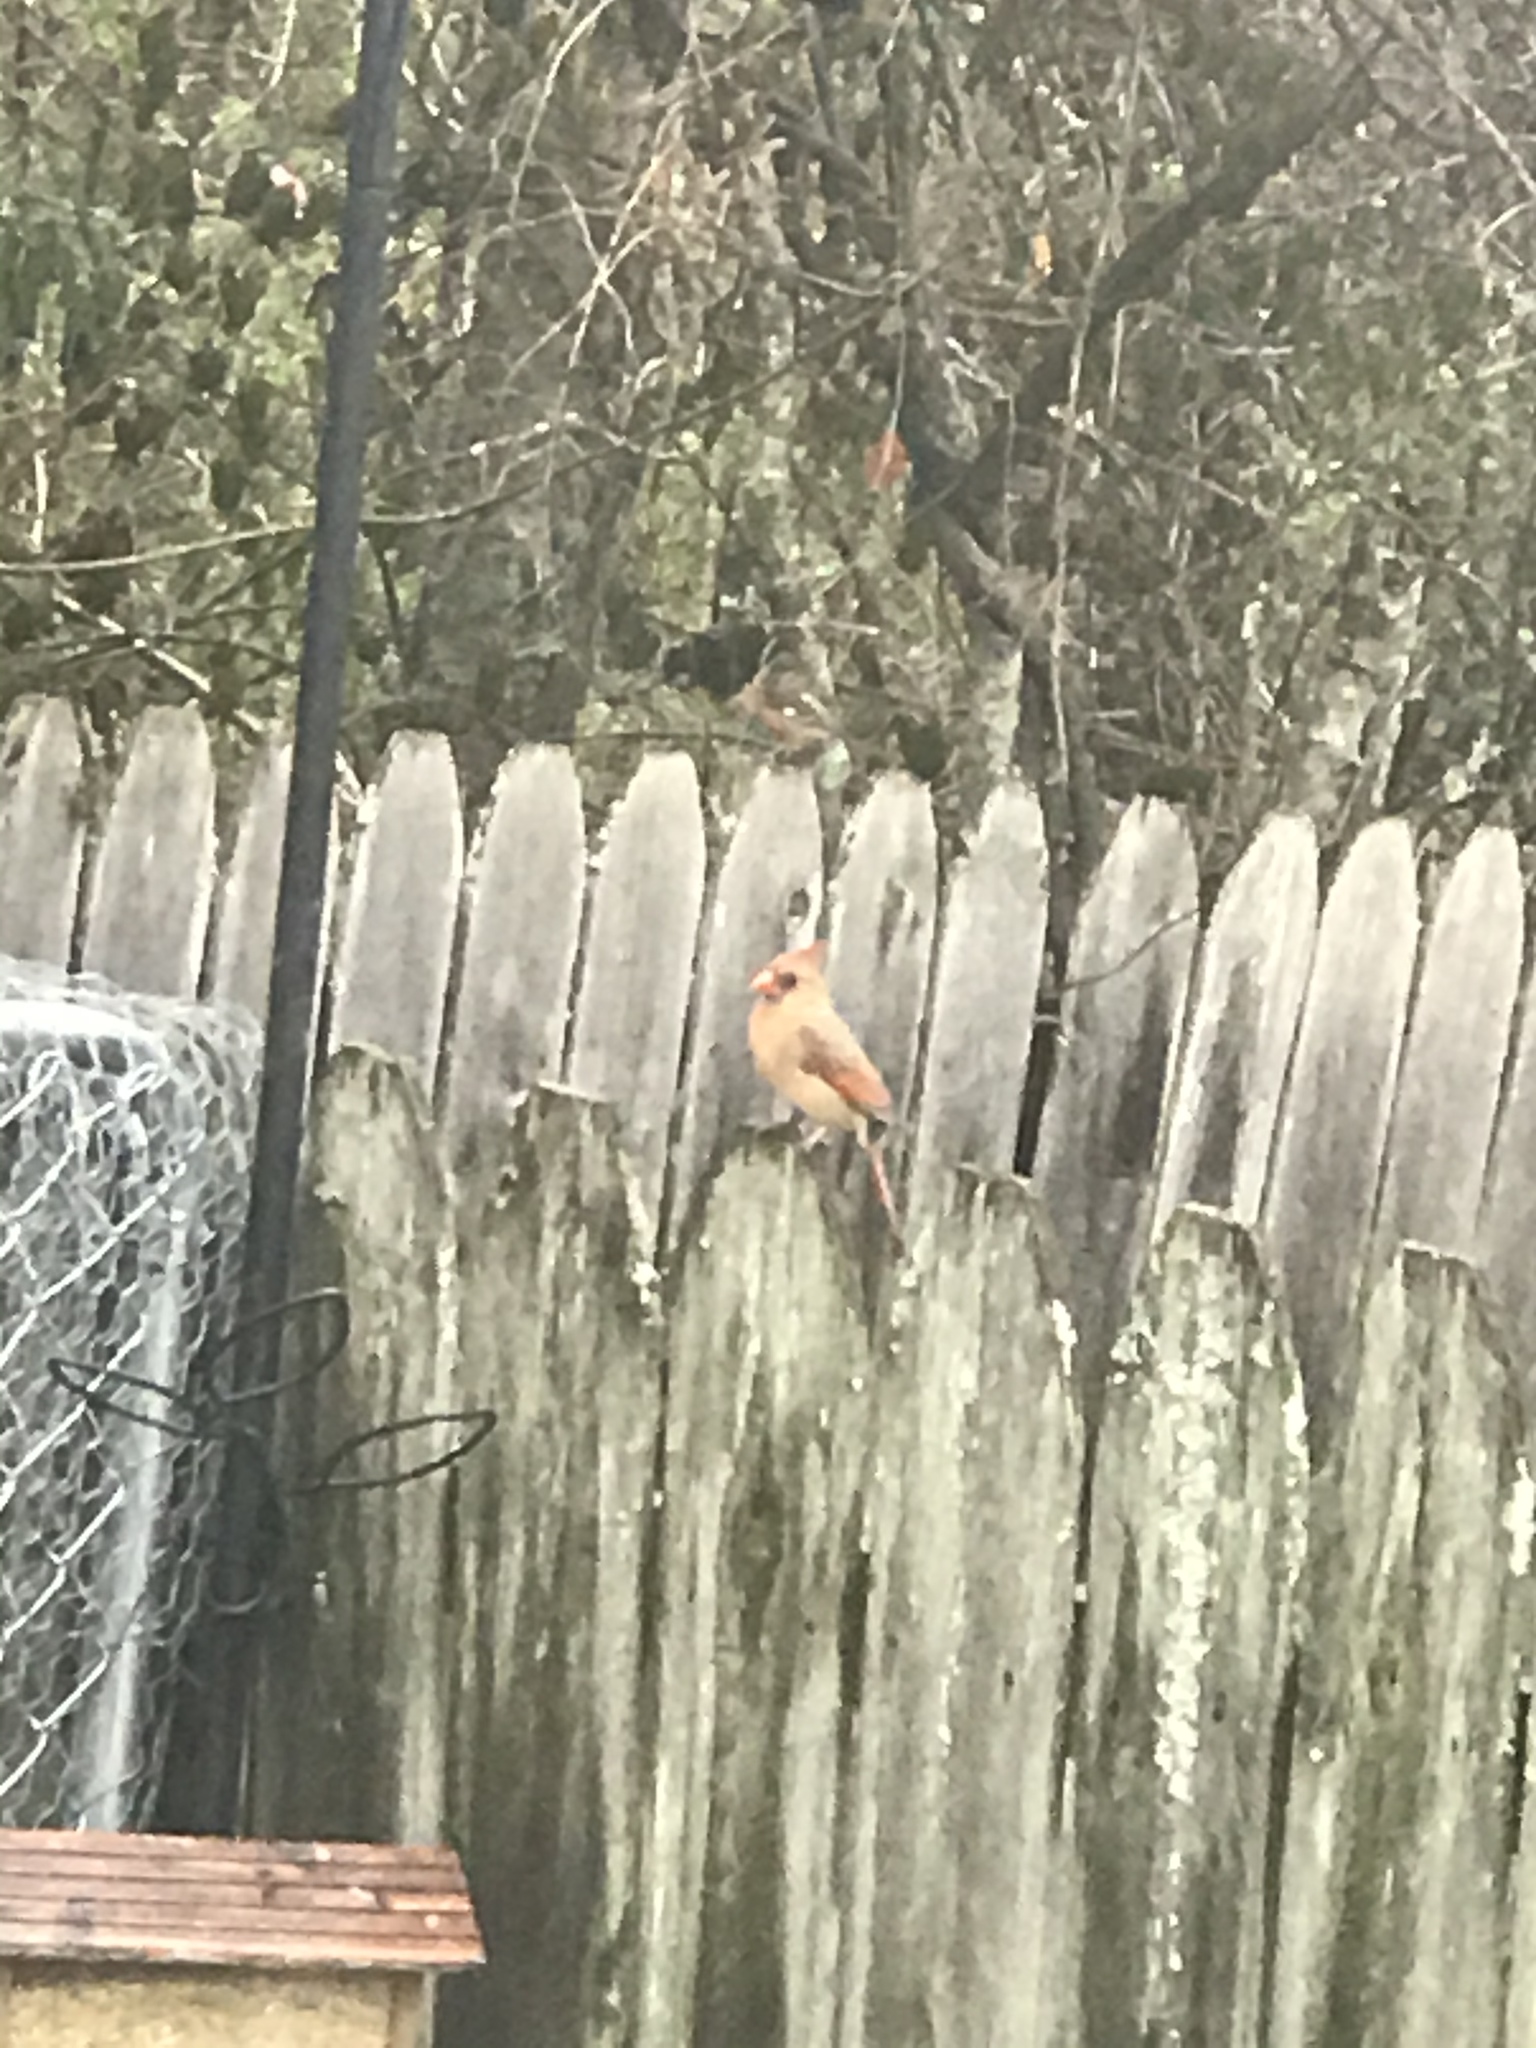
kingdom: Animalia
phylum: Chordata
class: Aves
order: Passeriformes
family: Cardinalidae
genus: Cardinalis
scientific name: Cardinalis cardinalis
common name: Northern cardinal
